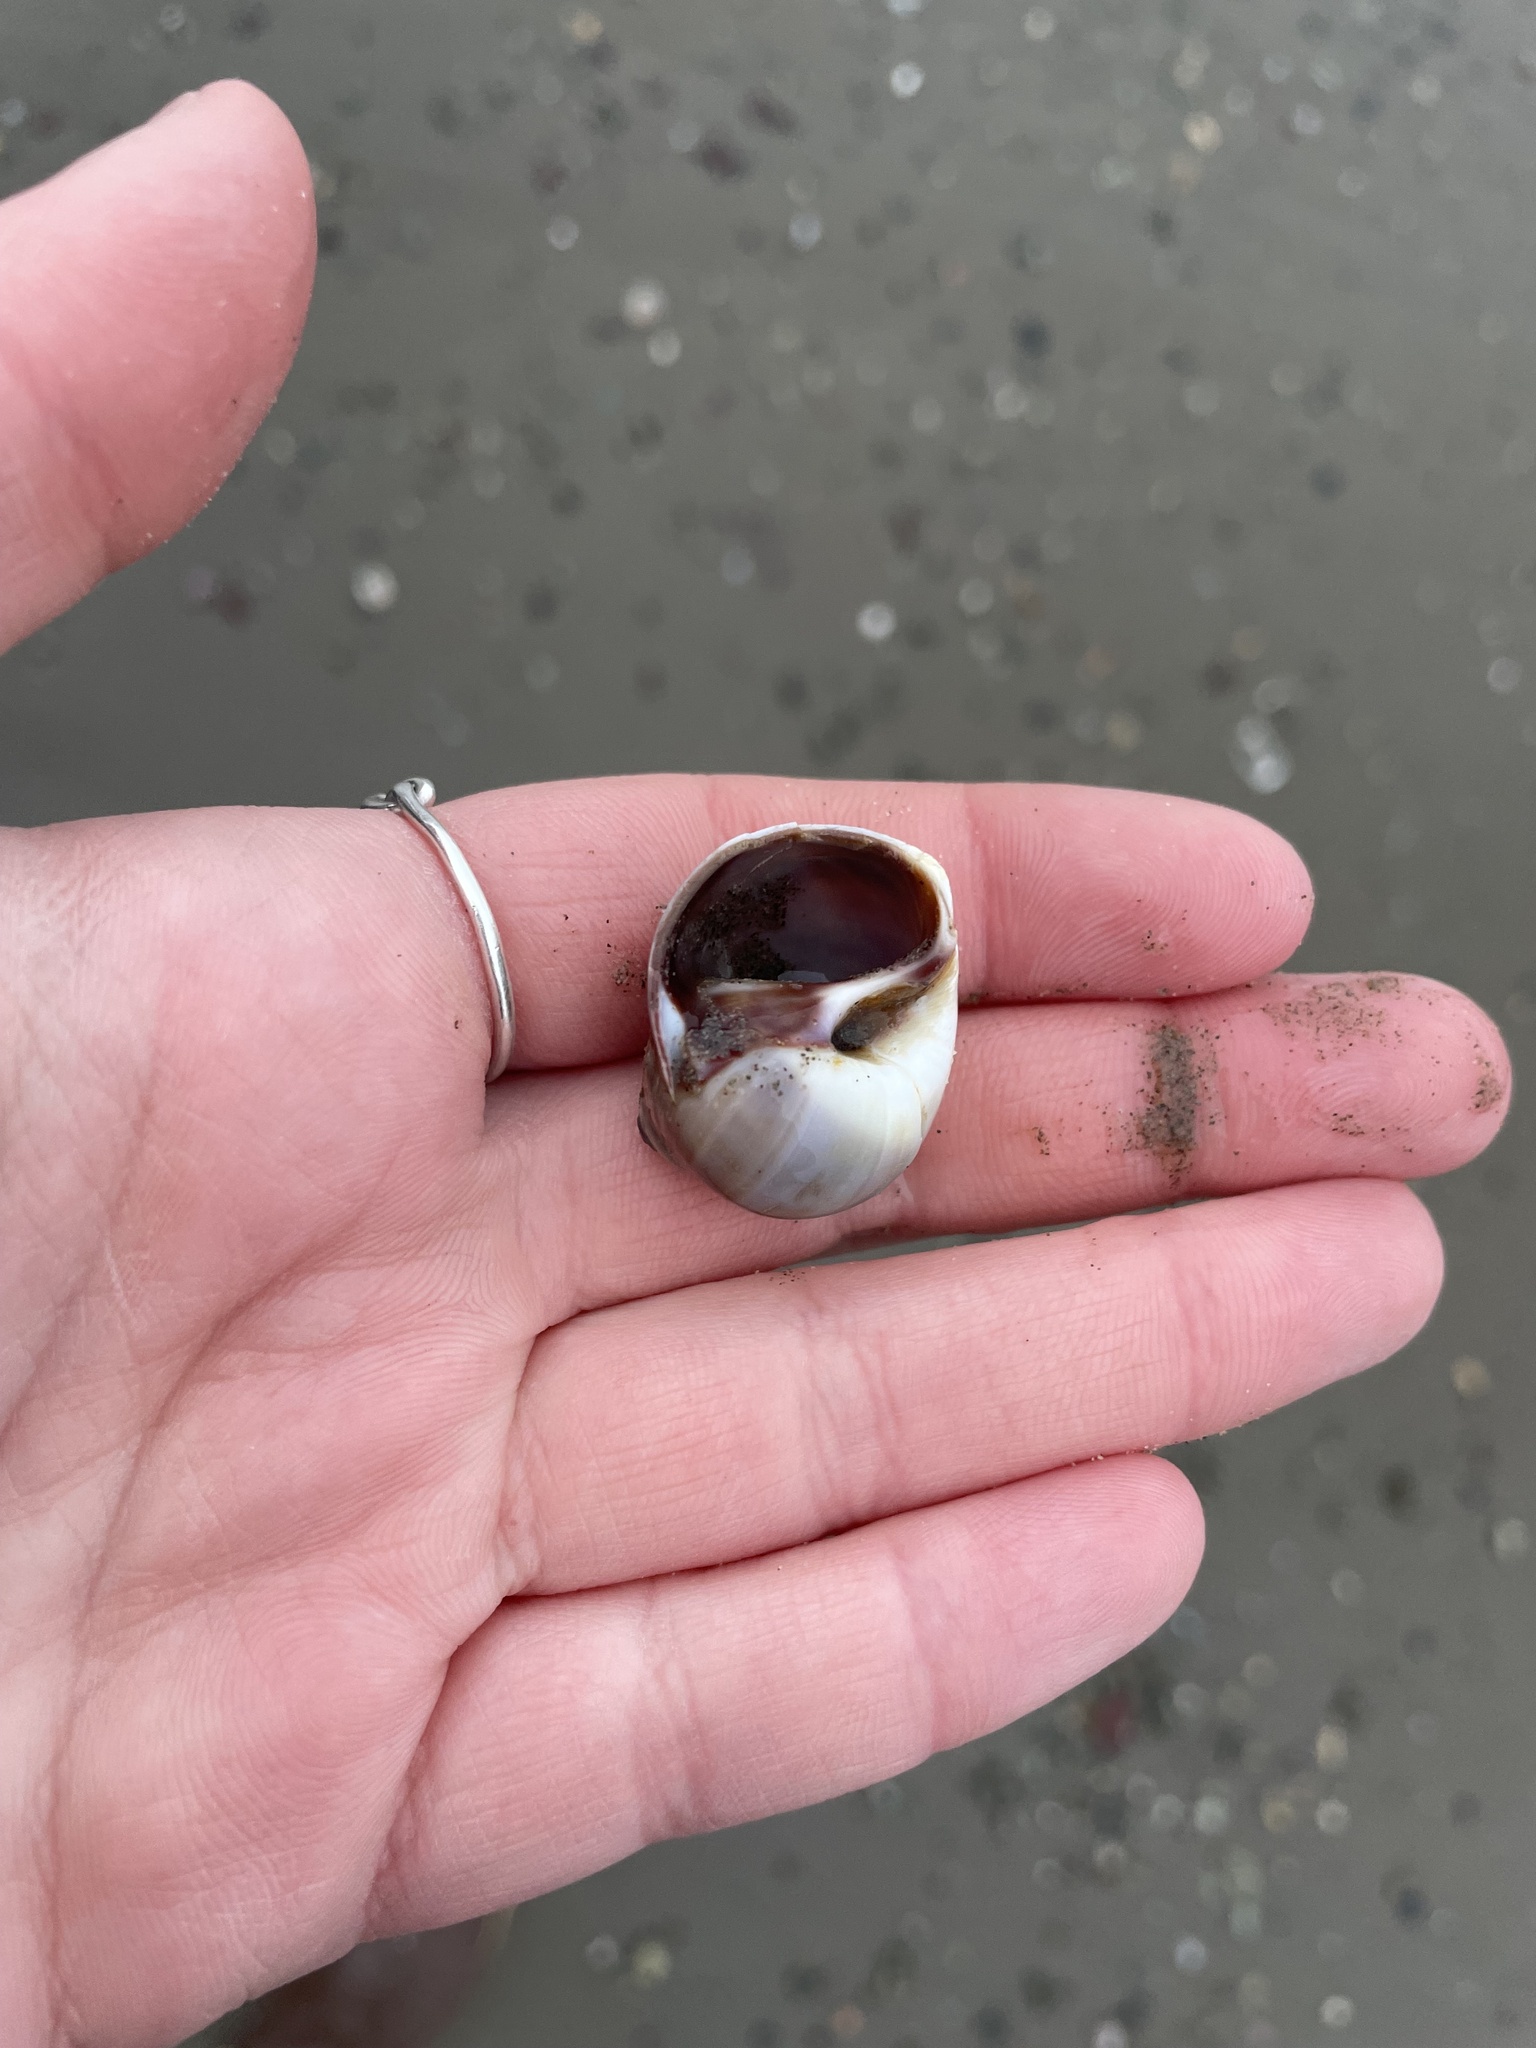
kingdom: Animalia
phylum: Mollusca
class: Gastropoda
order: Littorinimorpha
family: Naticidae
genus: Euspira
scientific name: Euspira heros
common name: Common northern moonsnail
